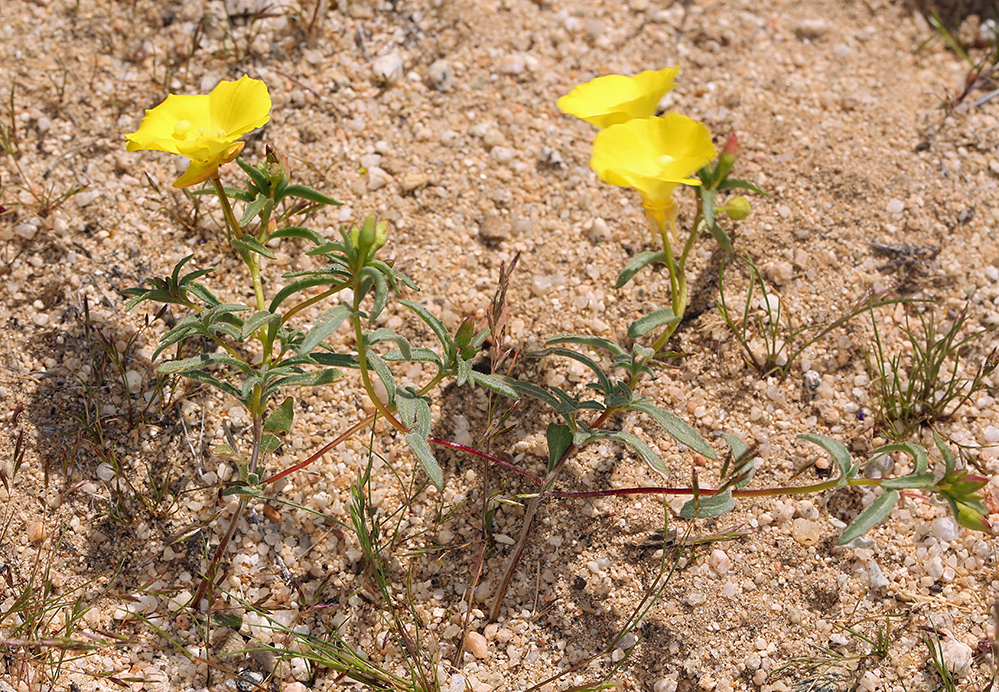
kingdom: Plantae
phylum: Tracheophyta
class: Magnoliopsida
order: Myrtales
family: Onagraceae
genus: Camissonia
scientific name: Camissonia campestris
